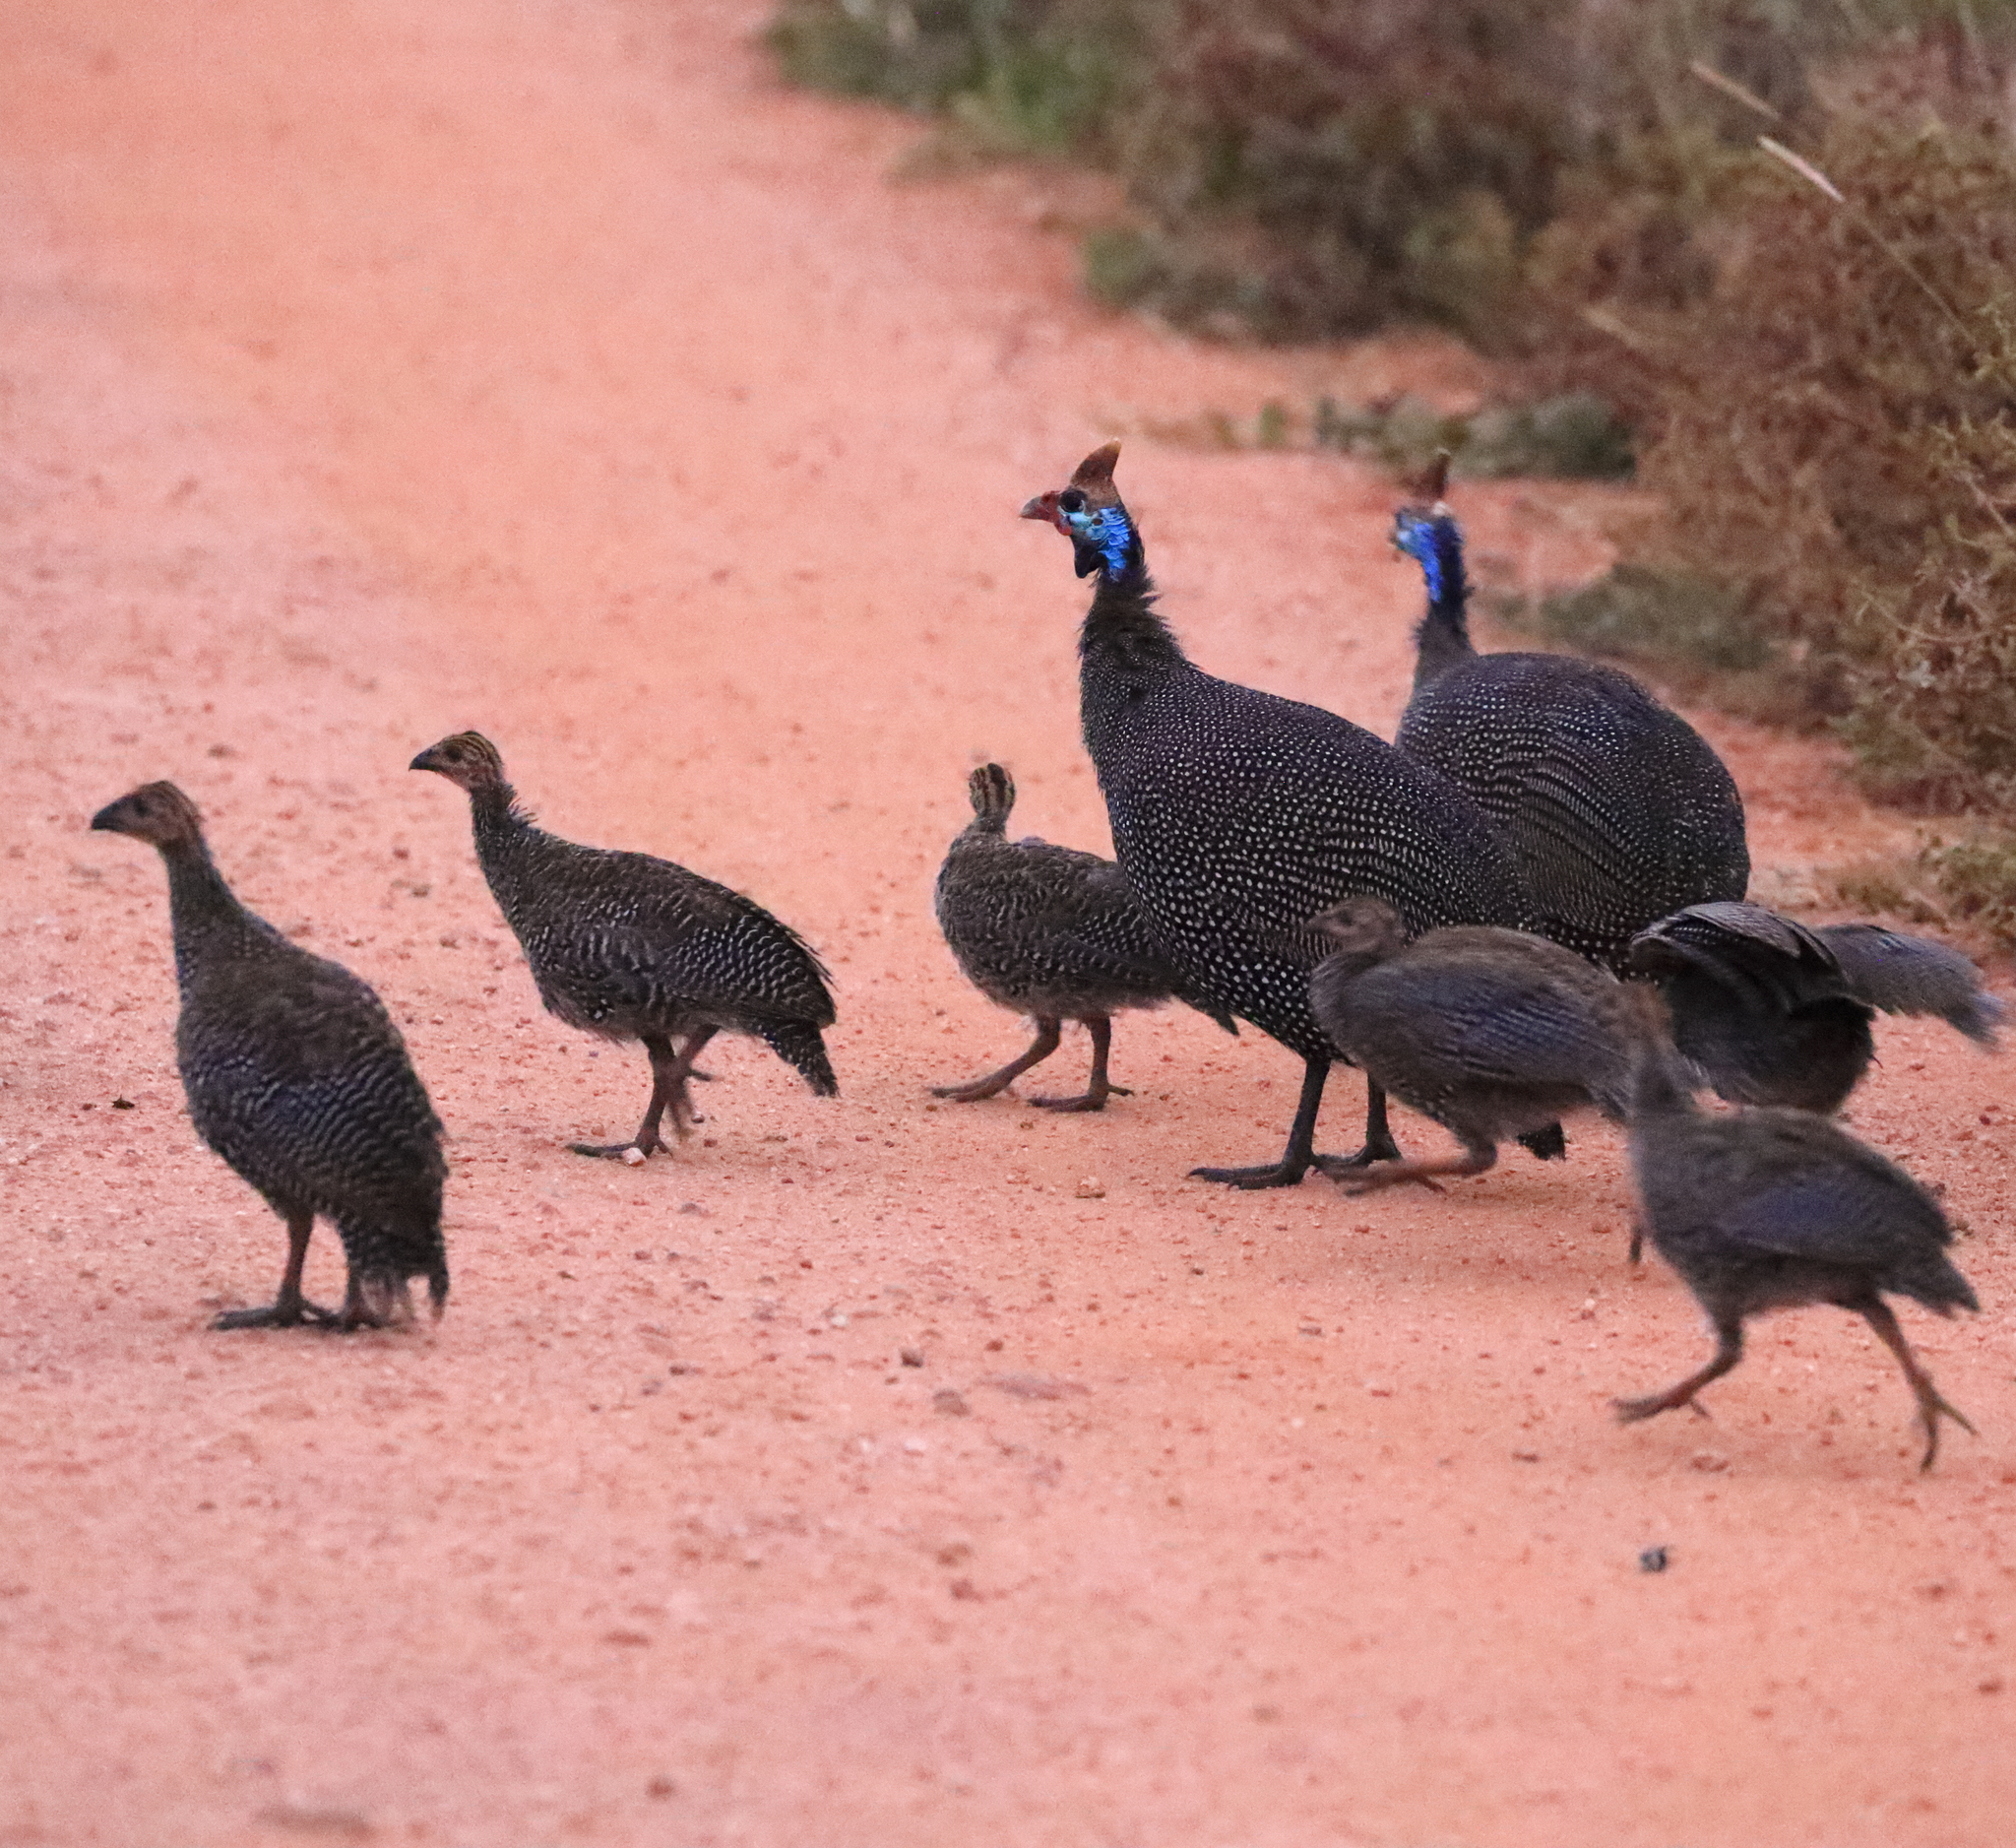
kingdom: Animalia
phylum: Chordata
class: Aves
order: Galliformes
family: Numididae
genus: Numida
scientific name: Numida meleagris
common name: Helmeted guineafowl
